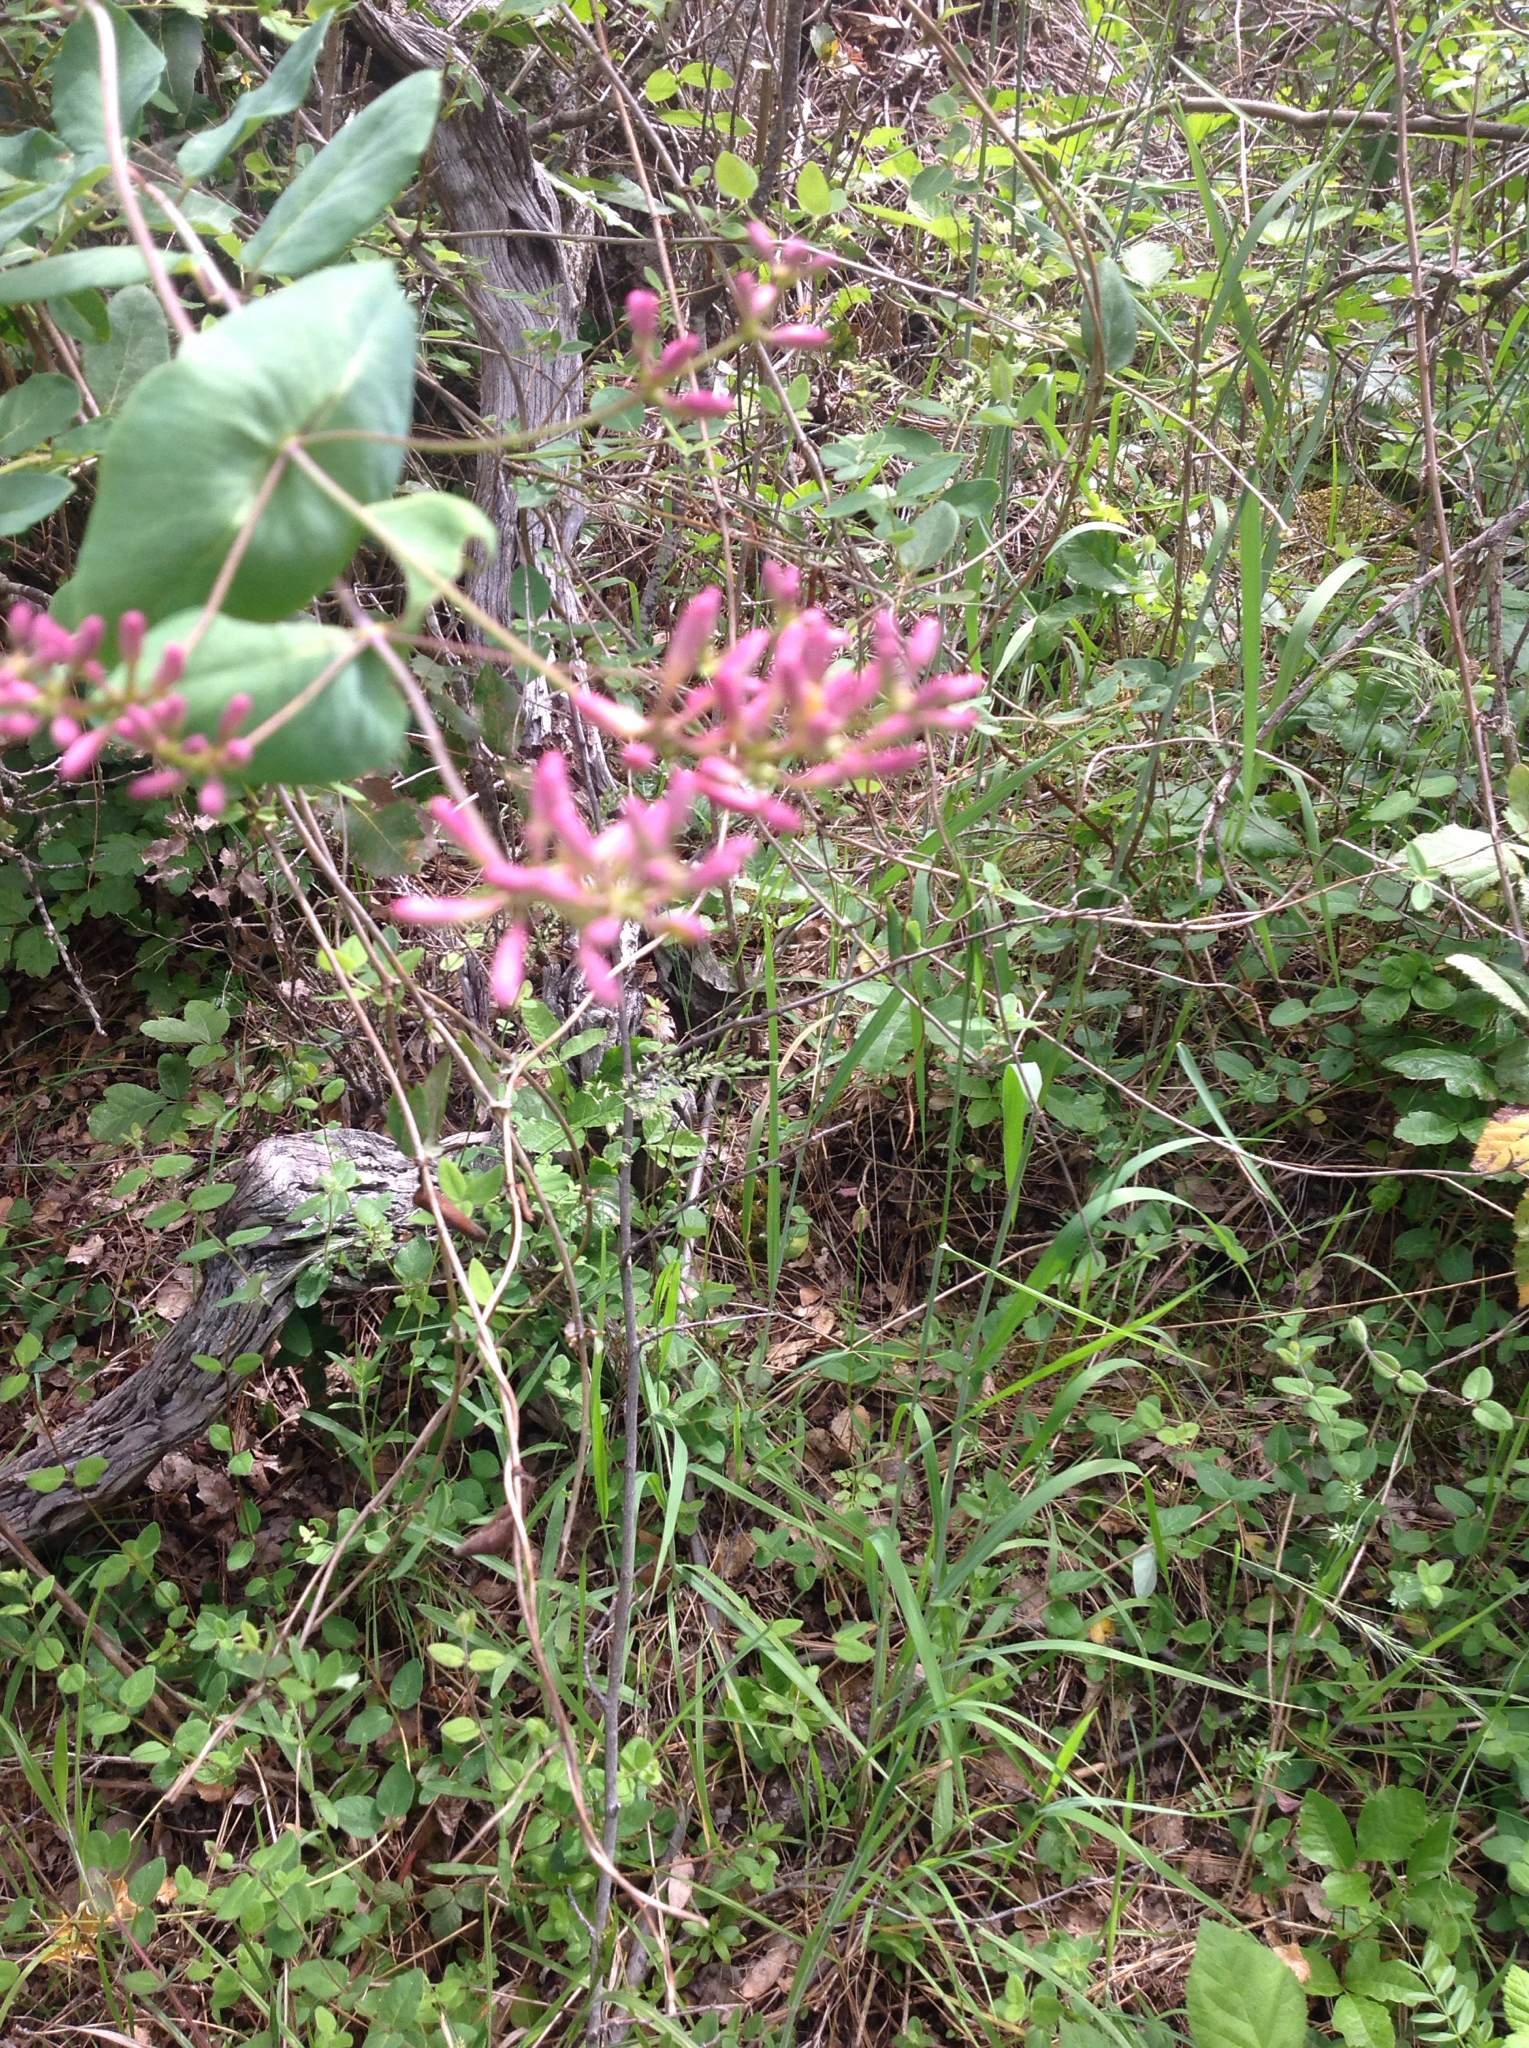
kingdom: Plantae
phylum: Tracheophyta
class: Magnoliopsida
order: Dipsacales
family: Caprifoliaceae
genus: Lonicera
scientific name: Lonicera hispidula
